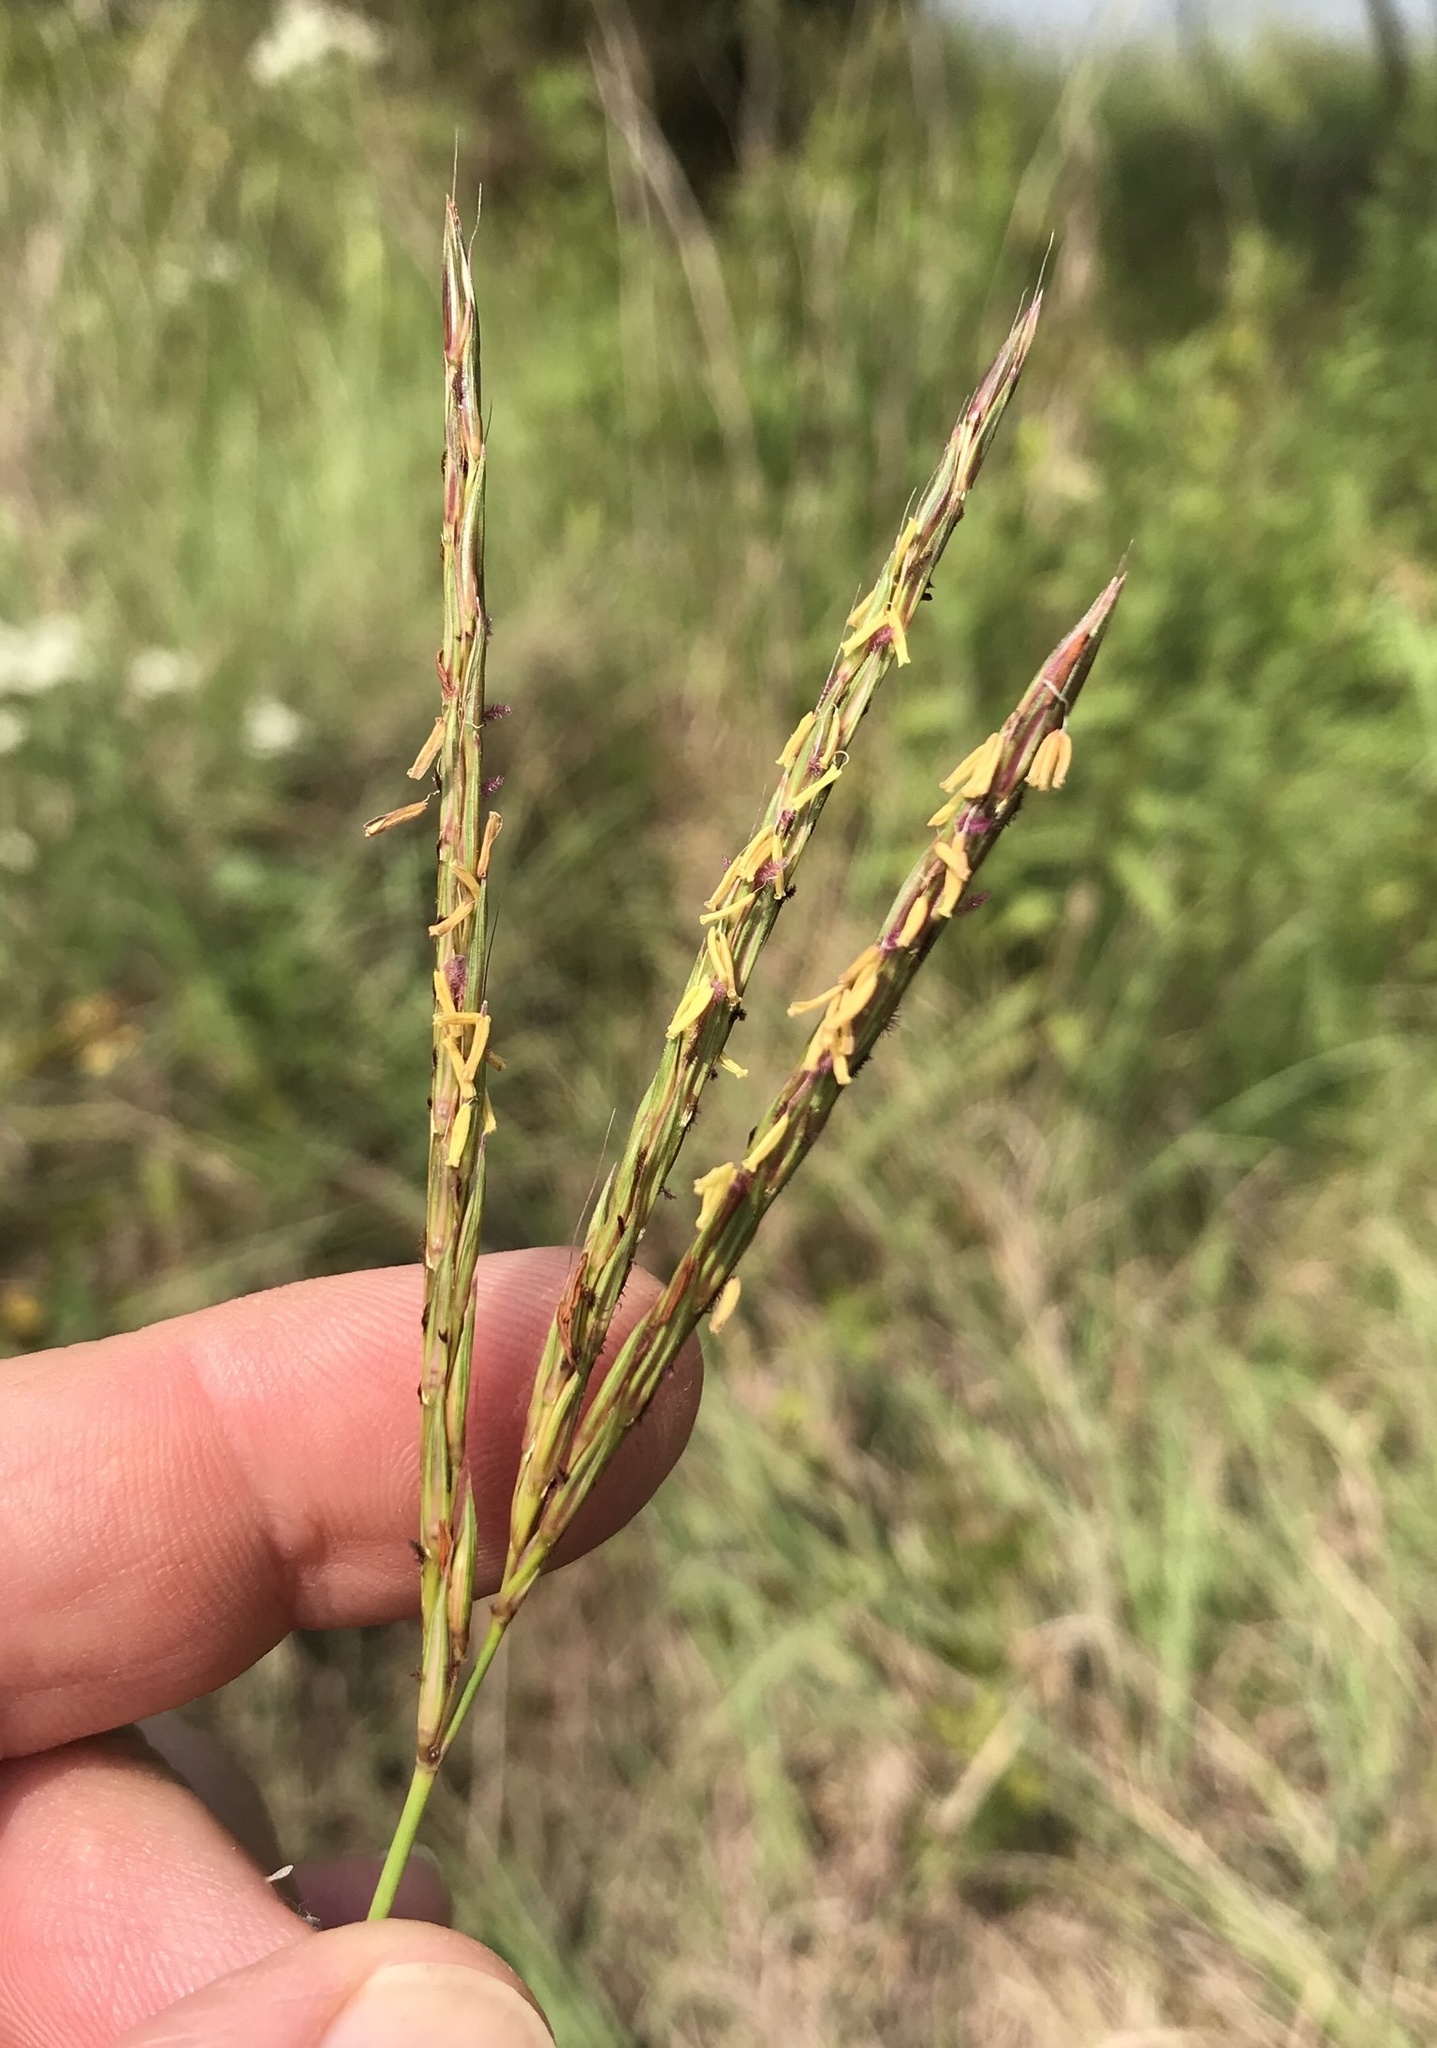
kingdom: Plantae
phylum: Tracheophyta
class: Liliopsida
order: Poales
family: Poaceae
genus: Andropogon
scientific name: Andropogon gerardi
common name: Big bluestem
